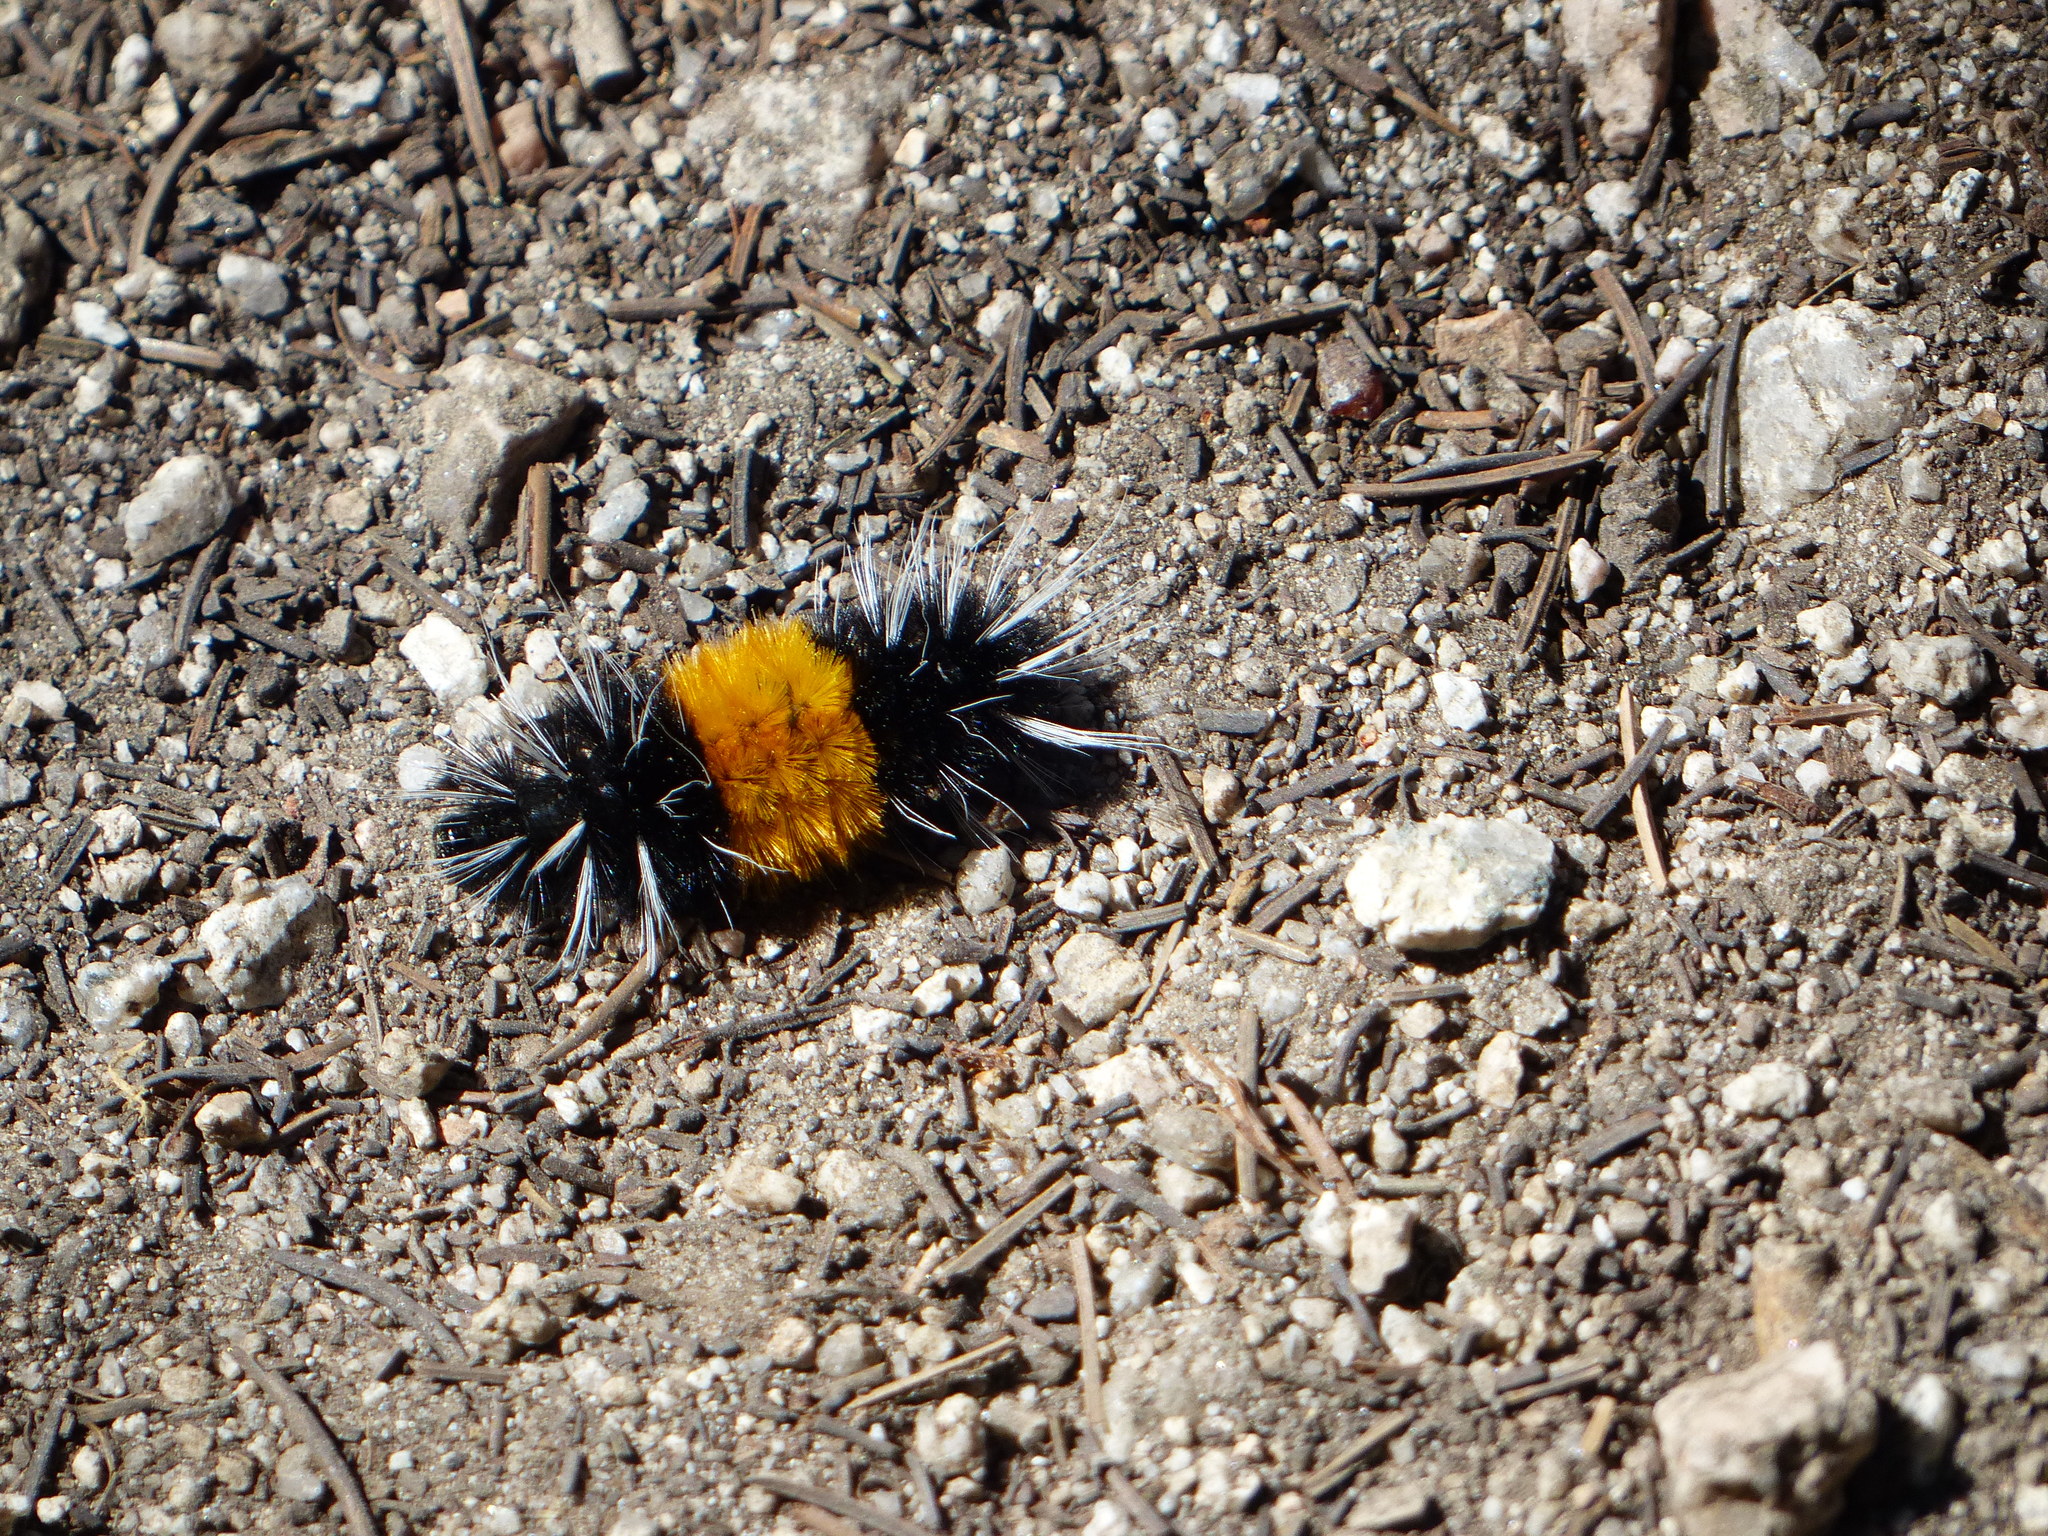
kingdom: Animalia
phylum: Arthropoda
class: Insecta
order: Lepidoptera
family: Erebidae
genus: Lophocampa
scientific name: Lophocampa maculata
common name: Spotted tussock moth
